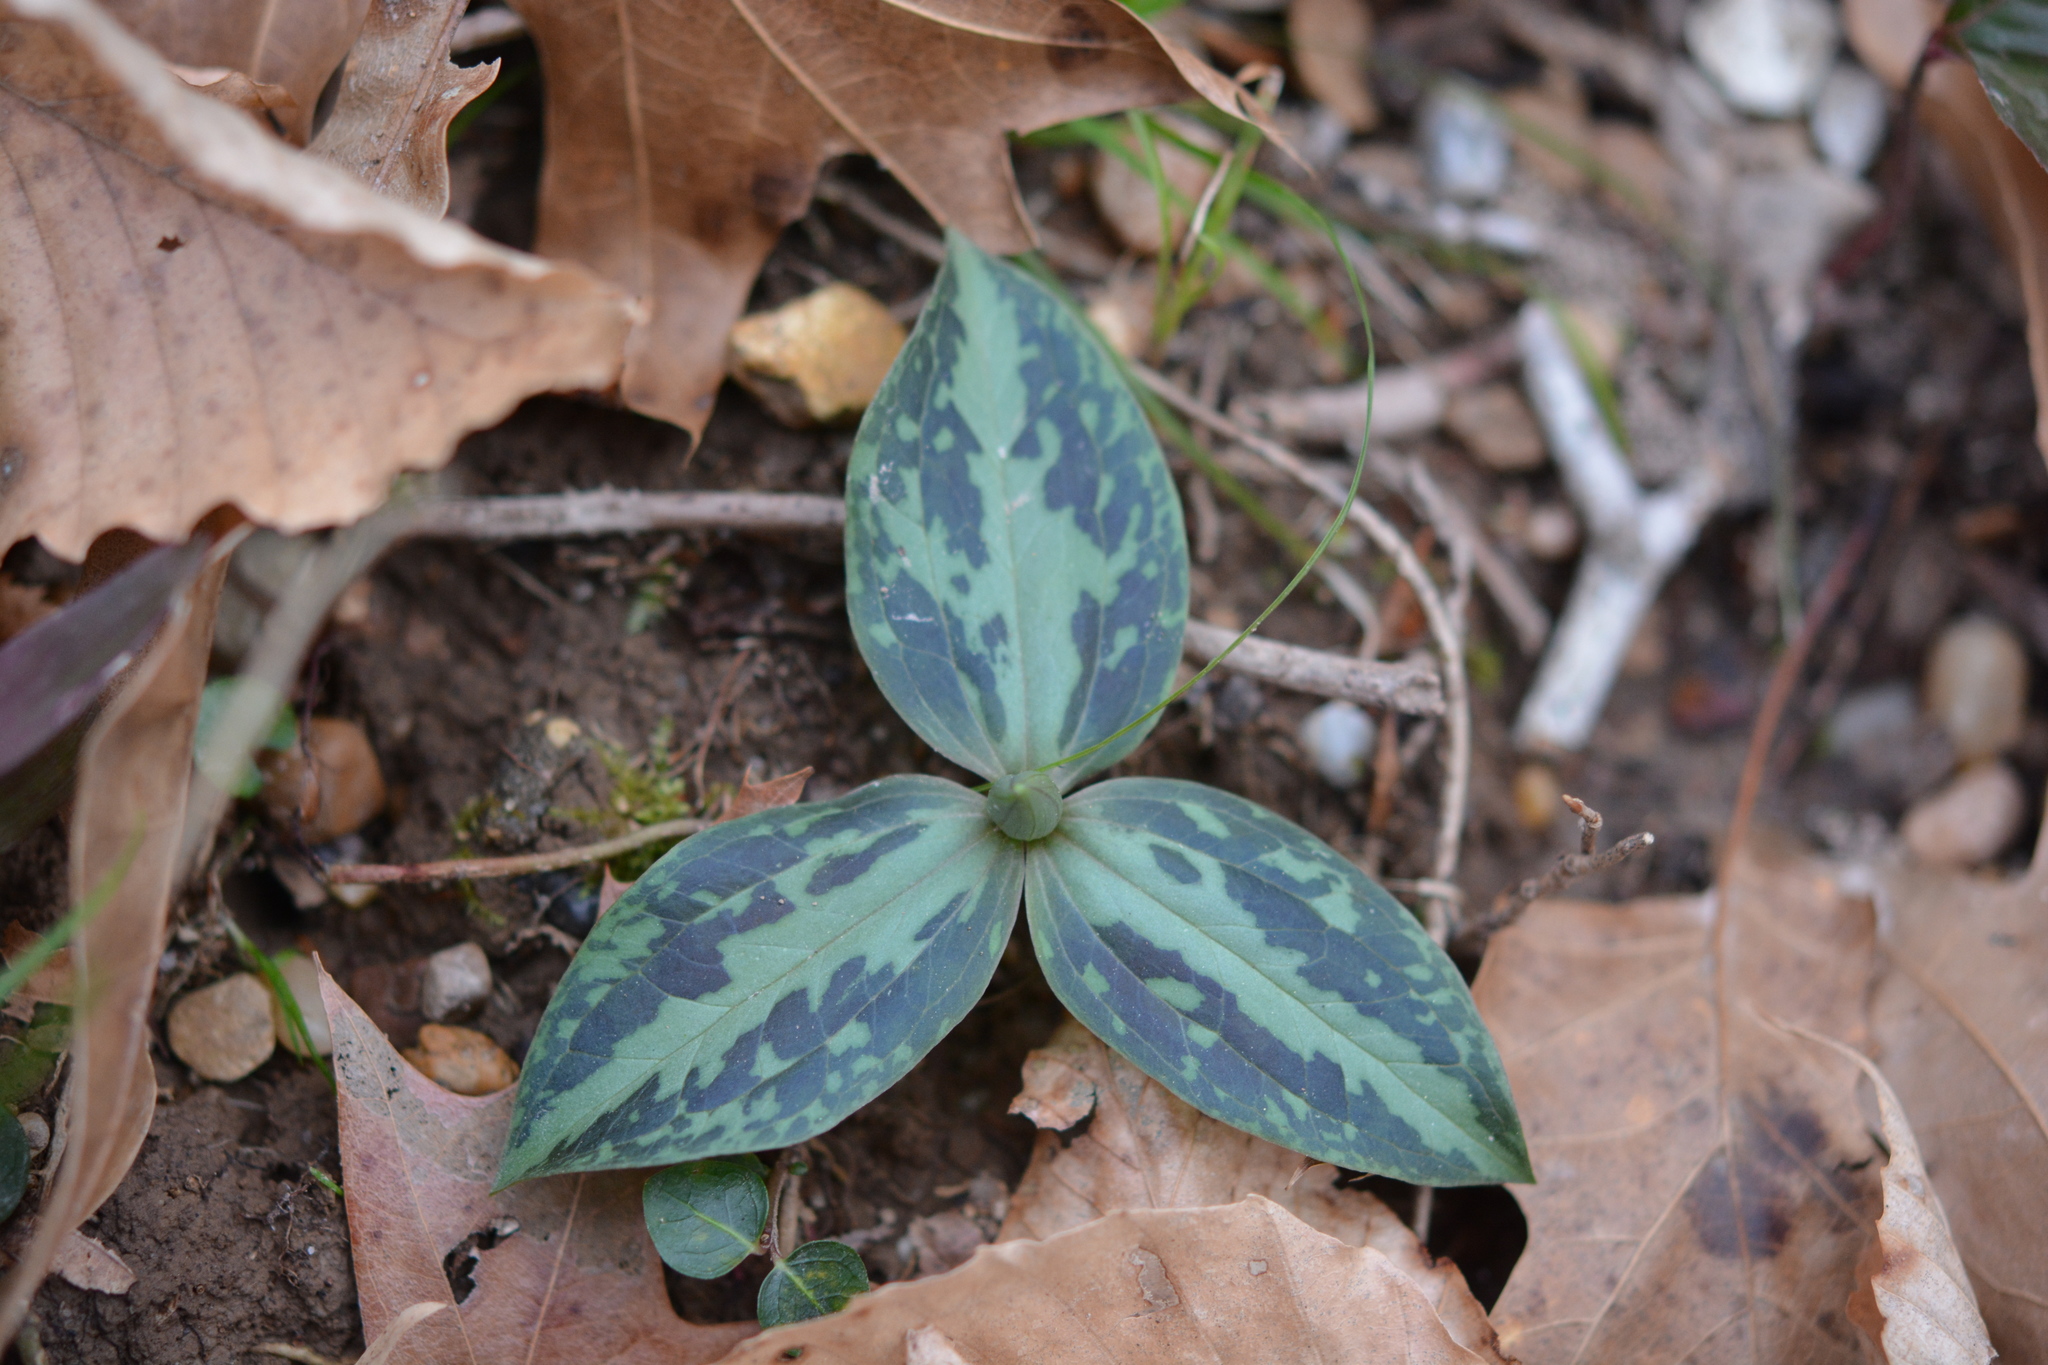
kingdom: Plantae
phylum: Tracheophyta
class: Liliopsida
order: Liliales
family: Melanthiaceae
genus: Trillium
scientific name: Trillium foetidissimum
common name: Mississippi river trillium
